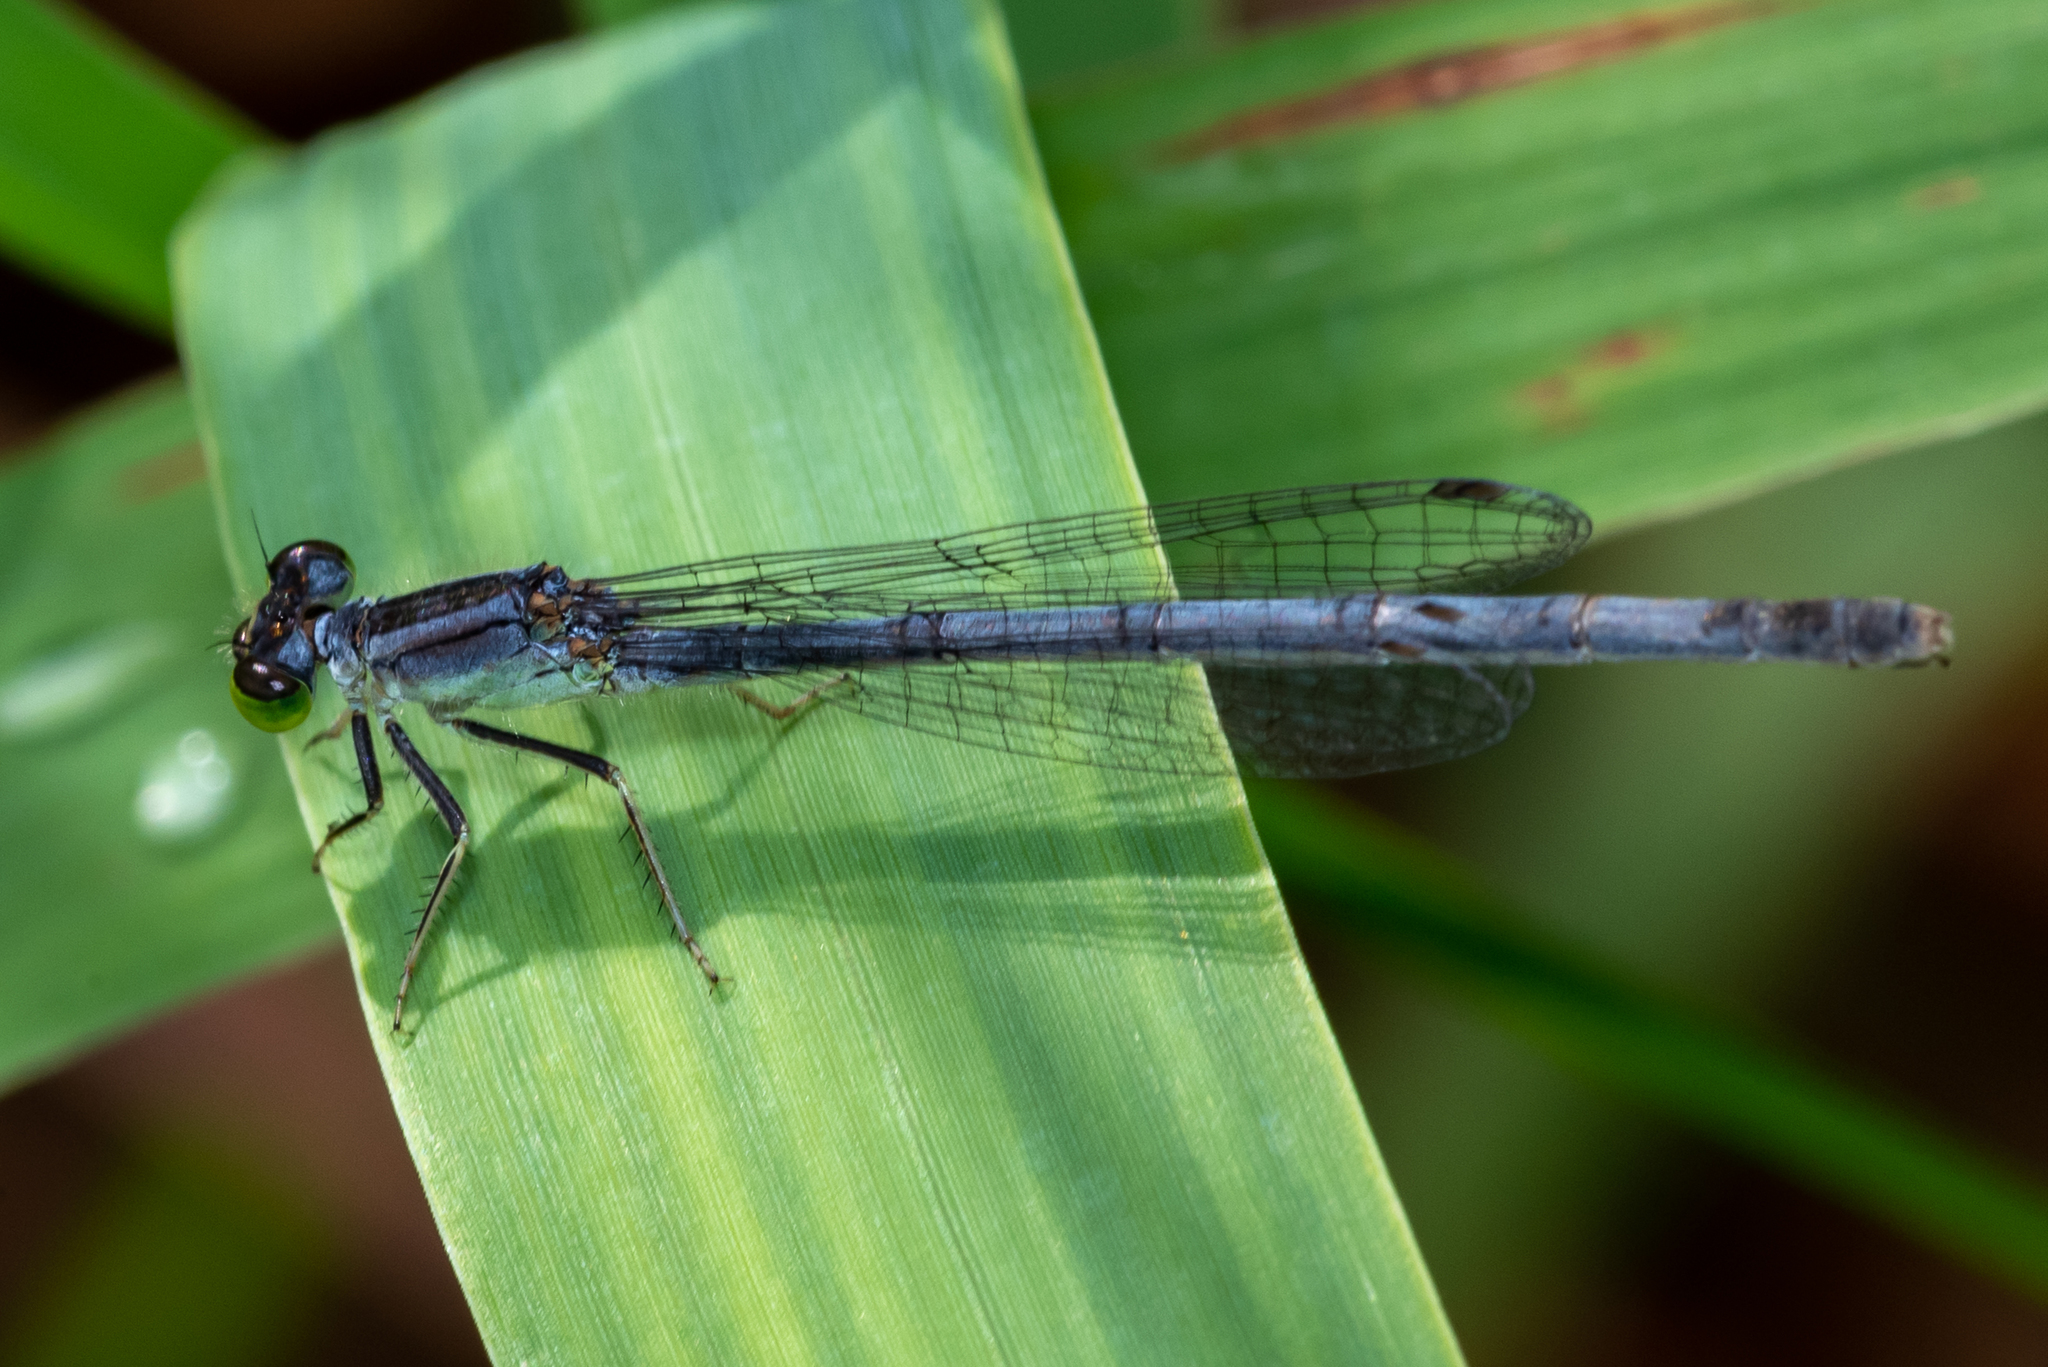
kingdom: Animalia
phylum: Arthropoda
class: Insecta
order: Odonata
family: Coenagrionidae
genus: Ischnura
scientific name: Ischnura verticalis
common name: Eastern forktail
